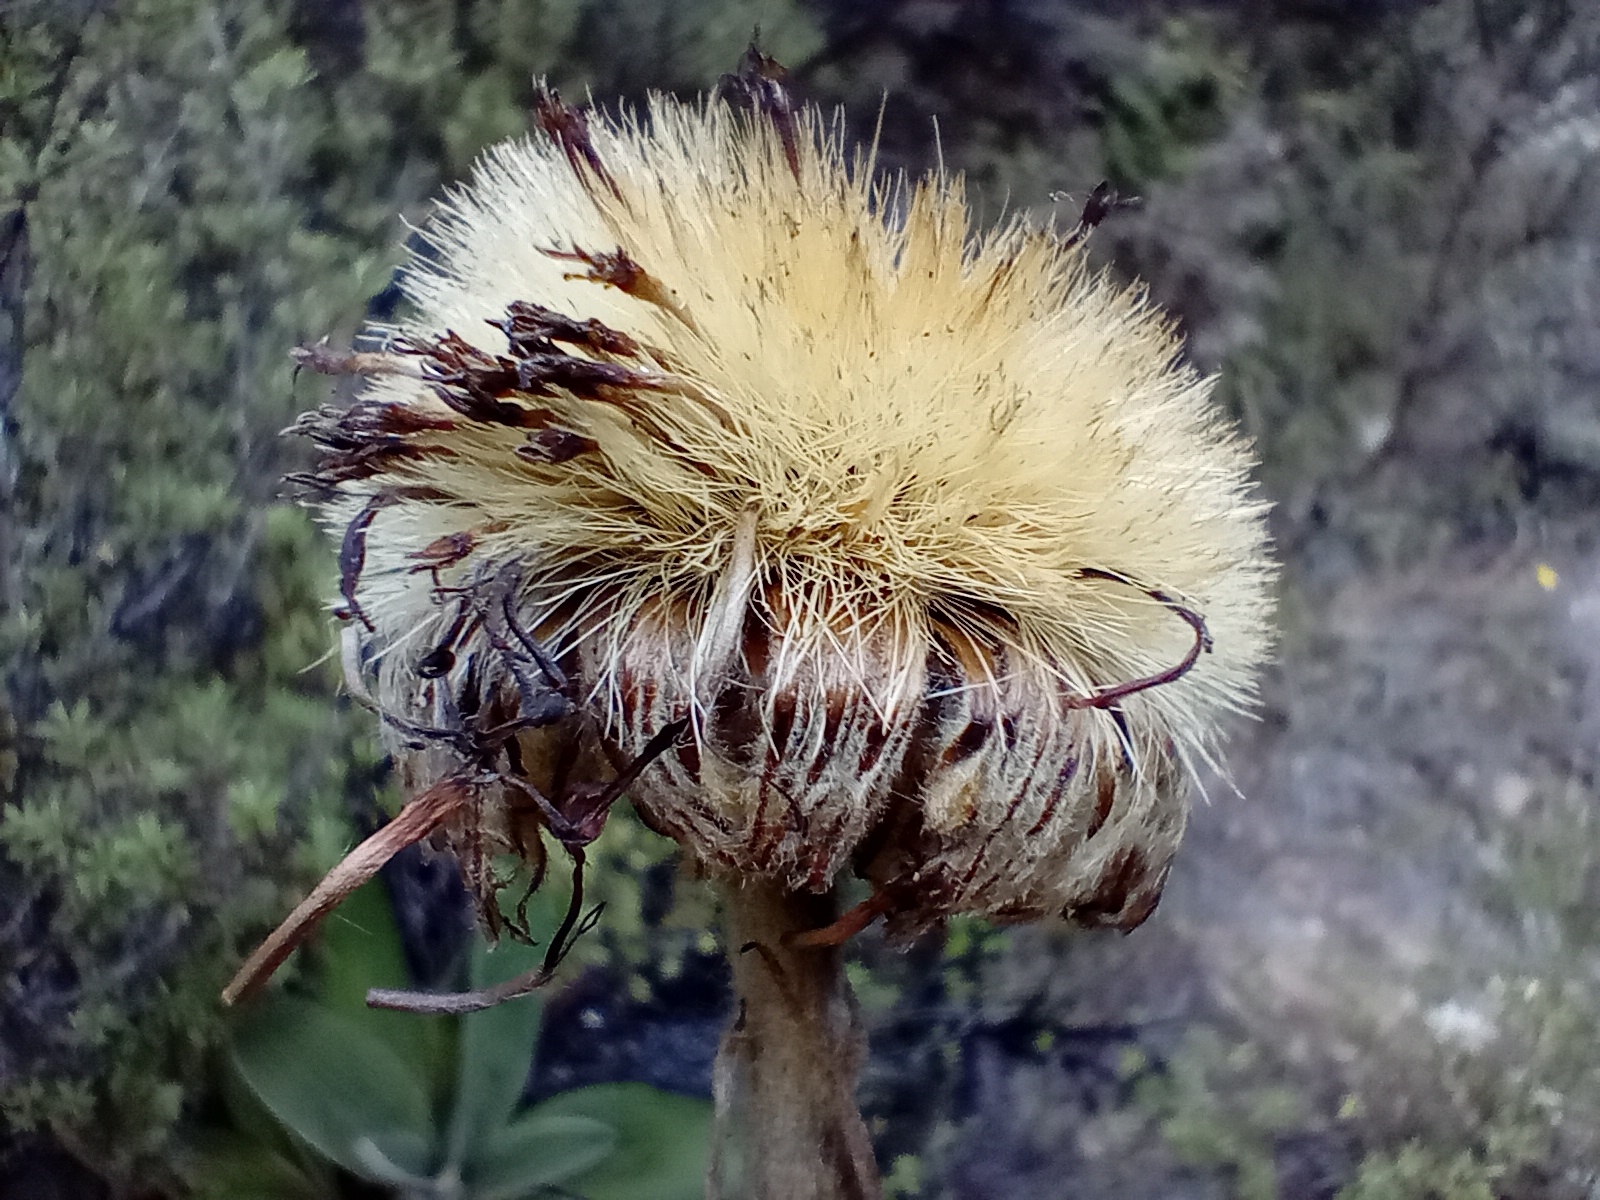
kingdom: Plantae
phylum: Tracheophyta
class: Magnoliopsida
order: Asterales
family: Asteraceae
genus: Celmisia
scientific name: Celmisia hookeri
